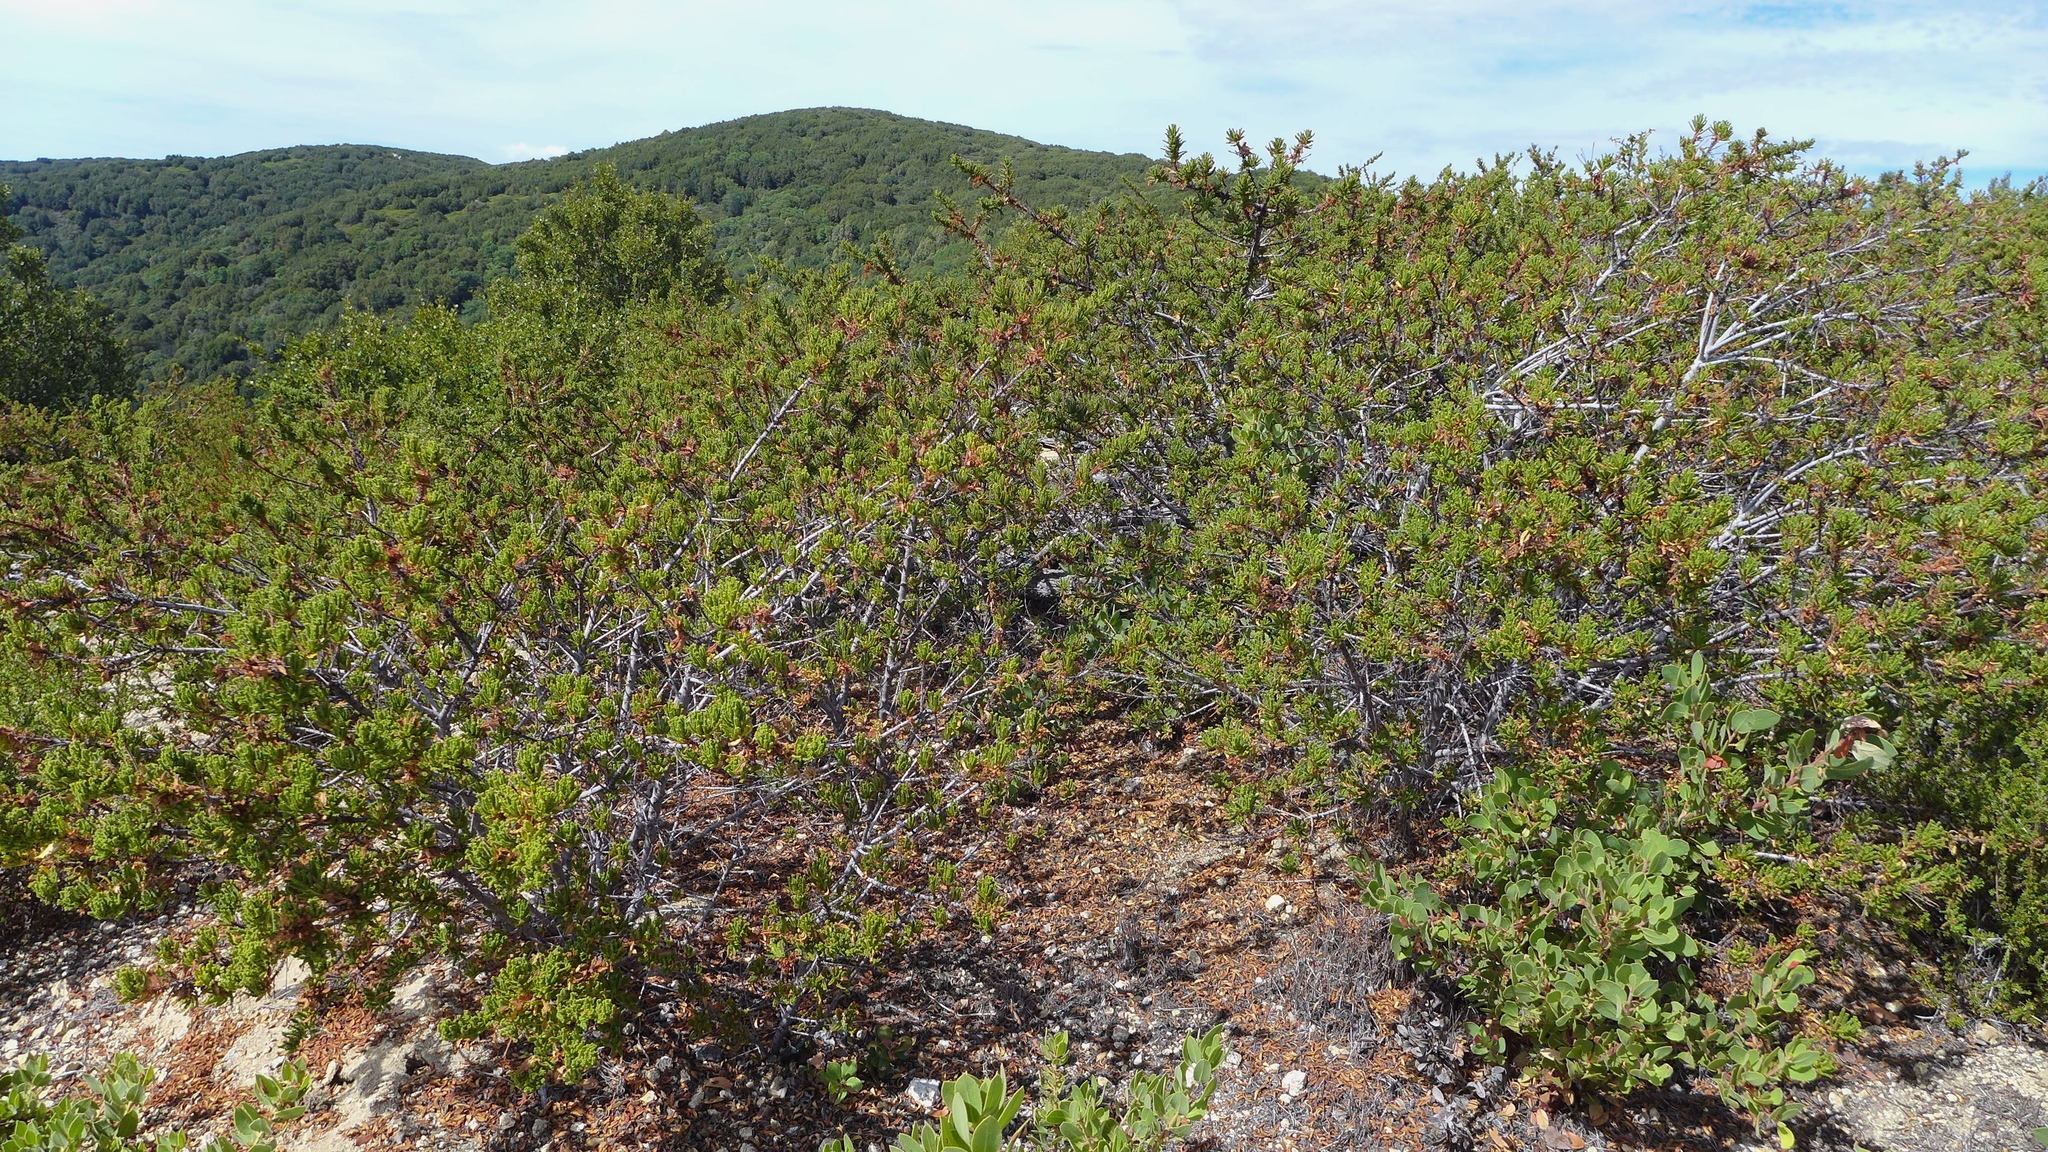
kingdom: Plantae
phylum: Tracheophyta
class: Magnoliopsida
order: Rosales
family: Rhamnaceae
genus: Ceanothus
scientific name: Ceanothus papillosus
